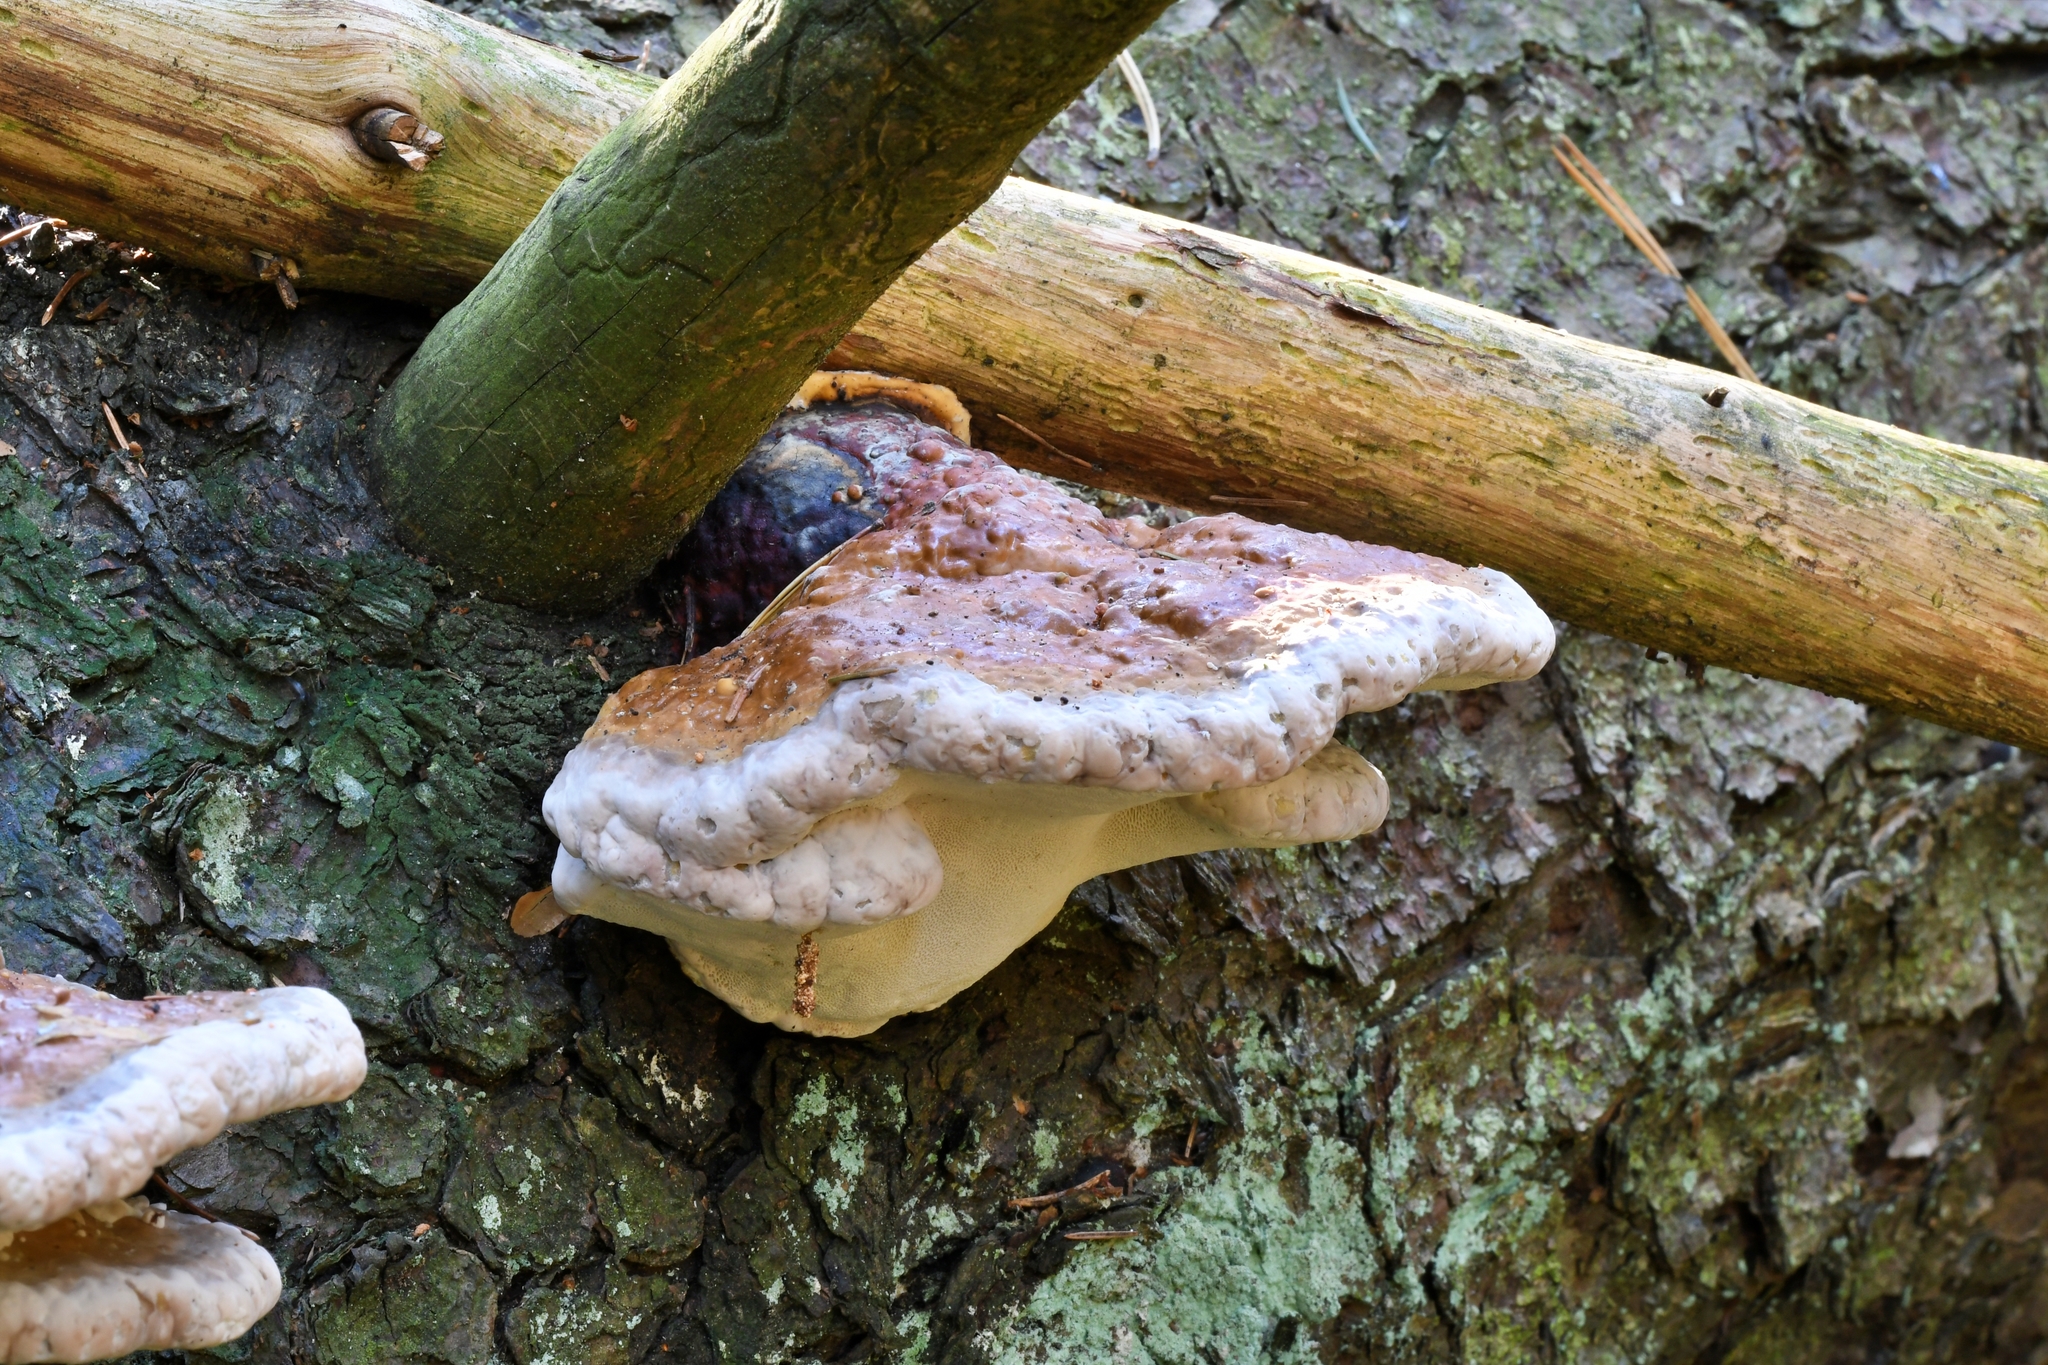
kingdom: Fungi
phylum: Basidiomycota
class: Agaricomycetes
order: Polyporales
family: Fomitopsidaceae
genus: Fomitopsis
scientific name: Fomitopsis pinicola
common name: Red-belted bracket
